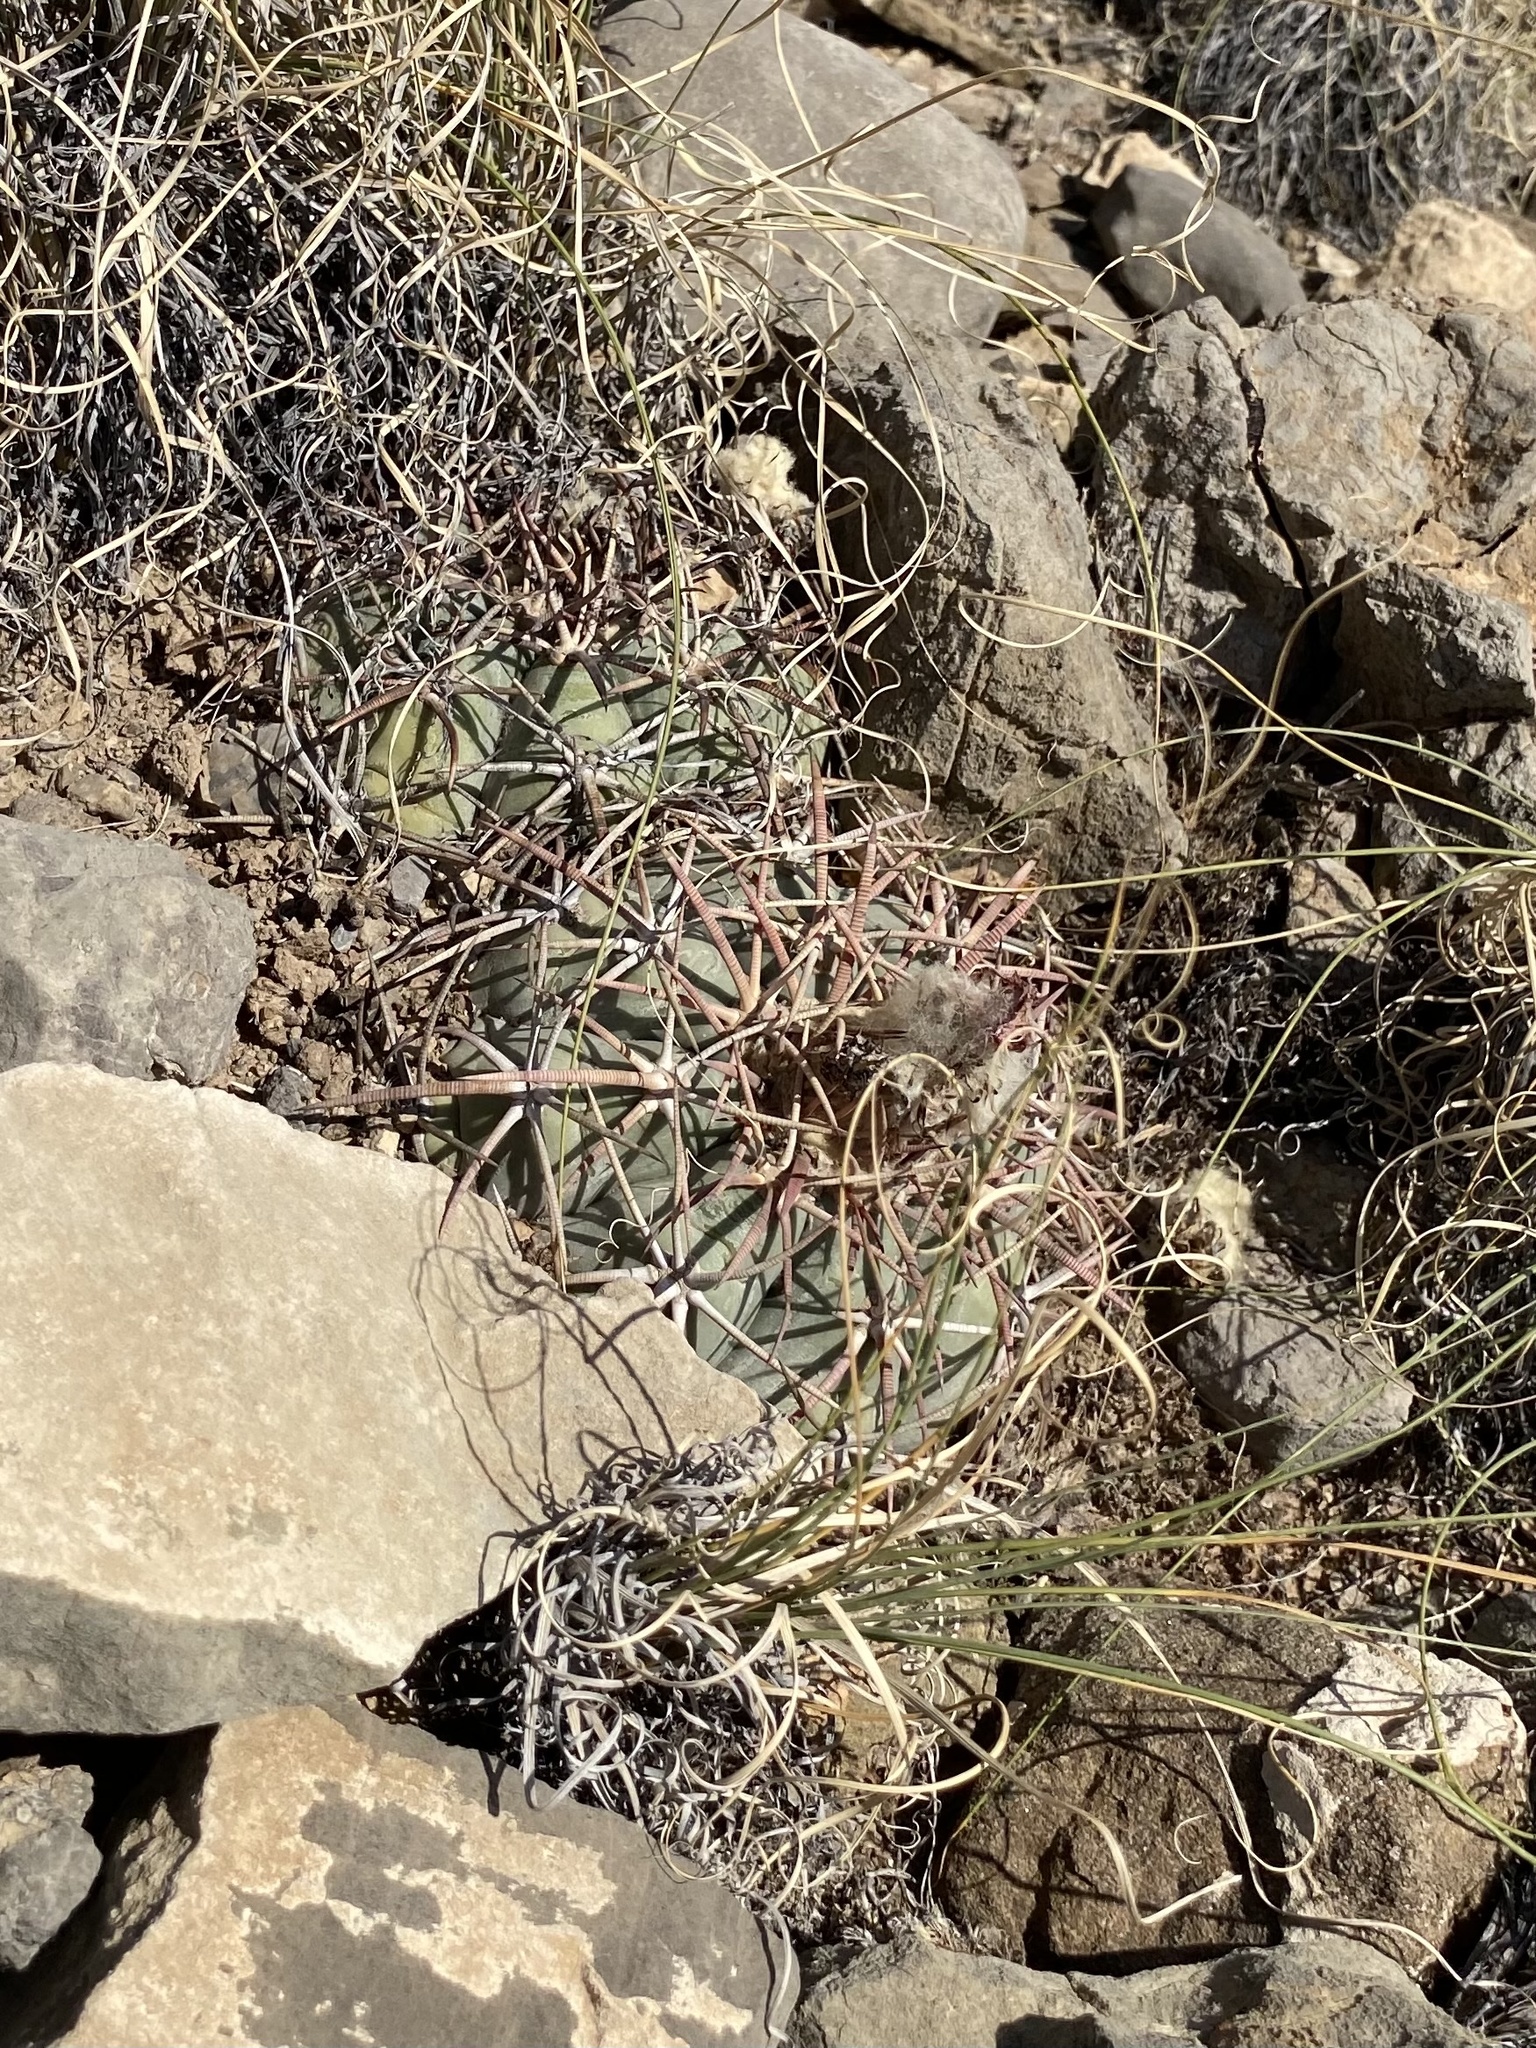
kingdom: Plantae
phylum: Tracheophyta
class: Magnoliopsida
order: Caryophyllales
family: Cactaceae
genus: Echinocactus
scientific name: Echinocactus horizonthalonius
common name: Devilshead
